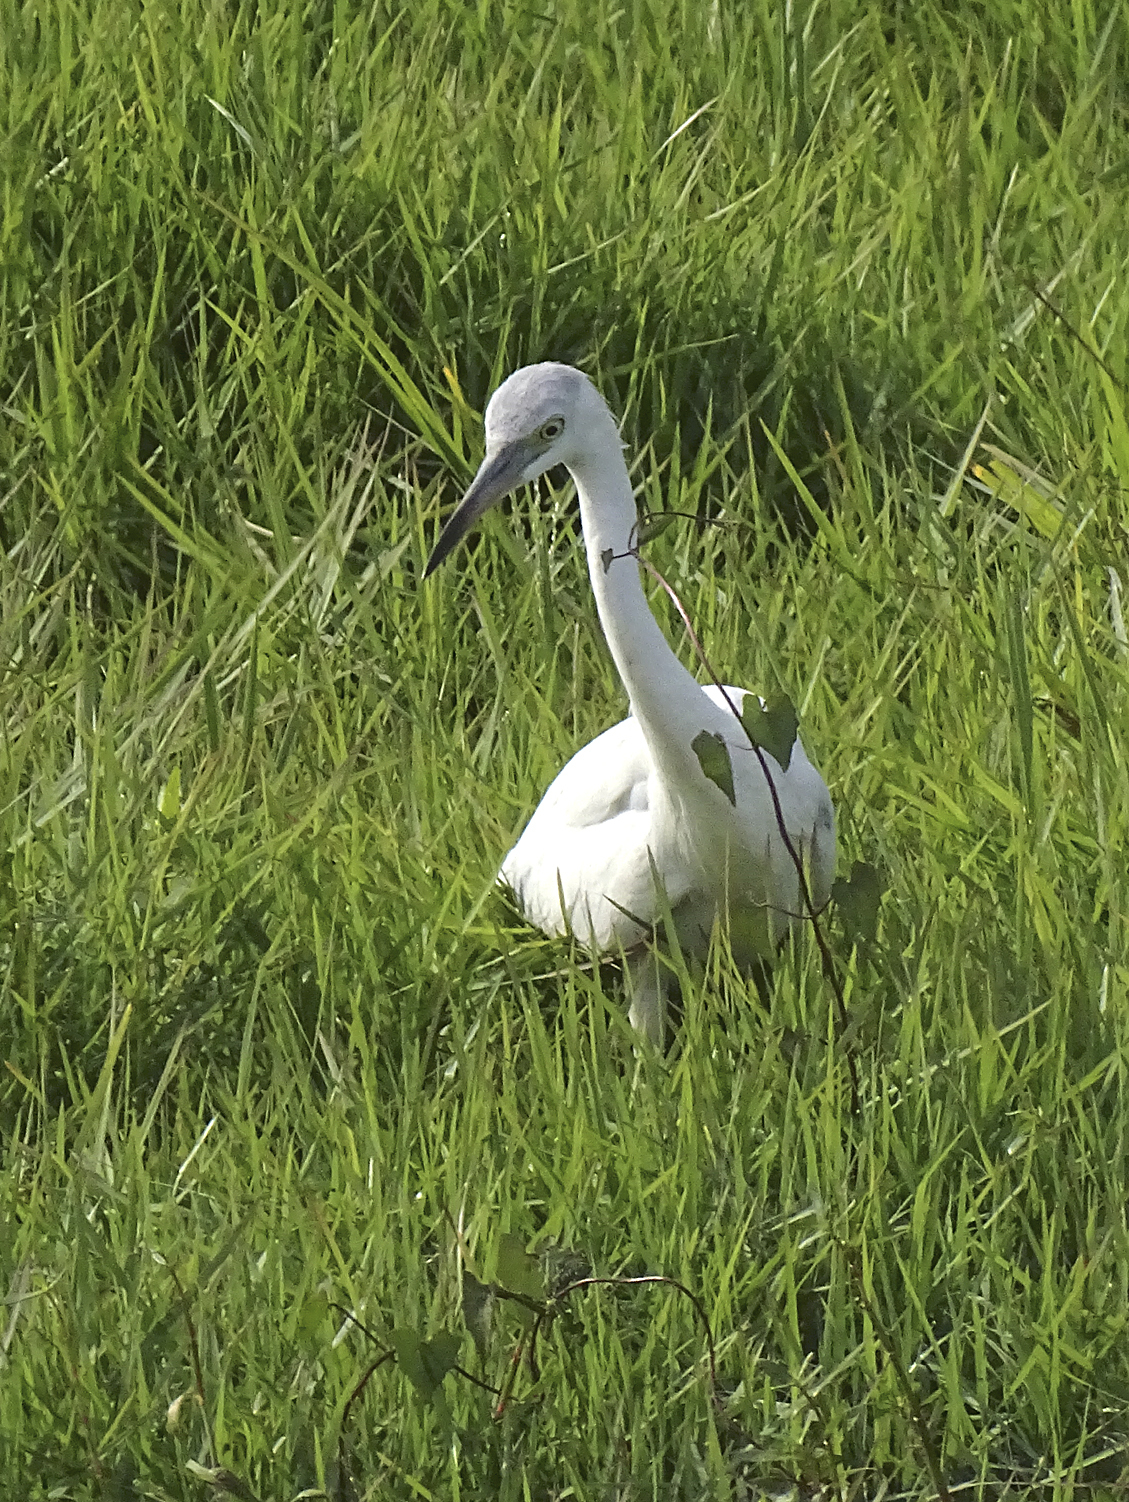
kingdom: Animalia
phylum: Chordata
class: Aves
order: Pelecaniformes
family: Ardeidae
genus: Egretta
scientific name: Egretta caerulea
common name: Little blue heron
